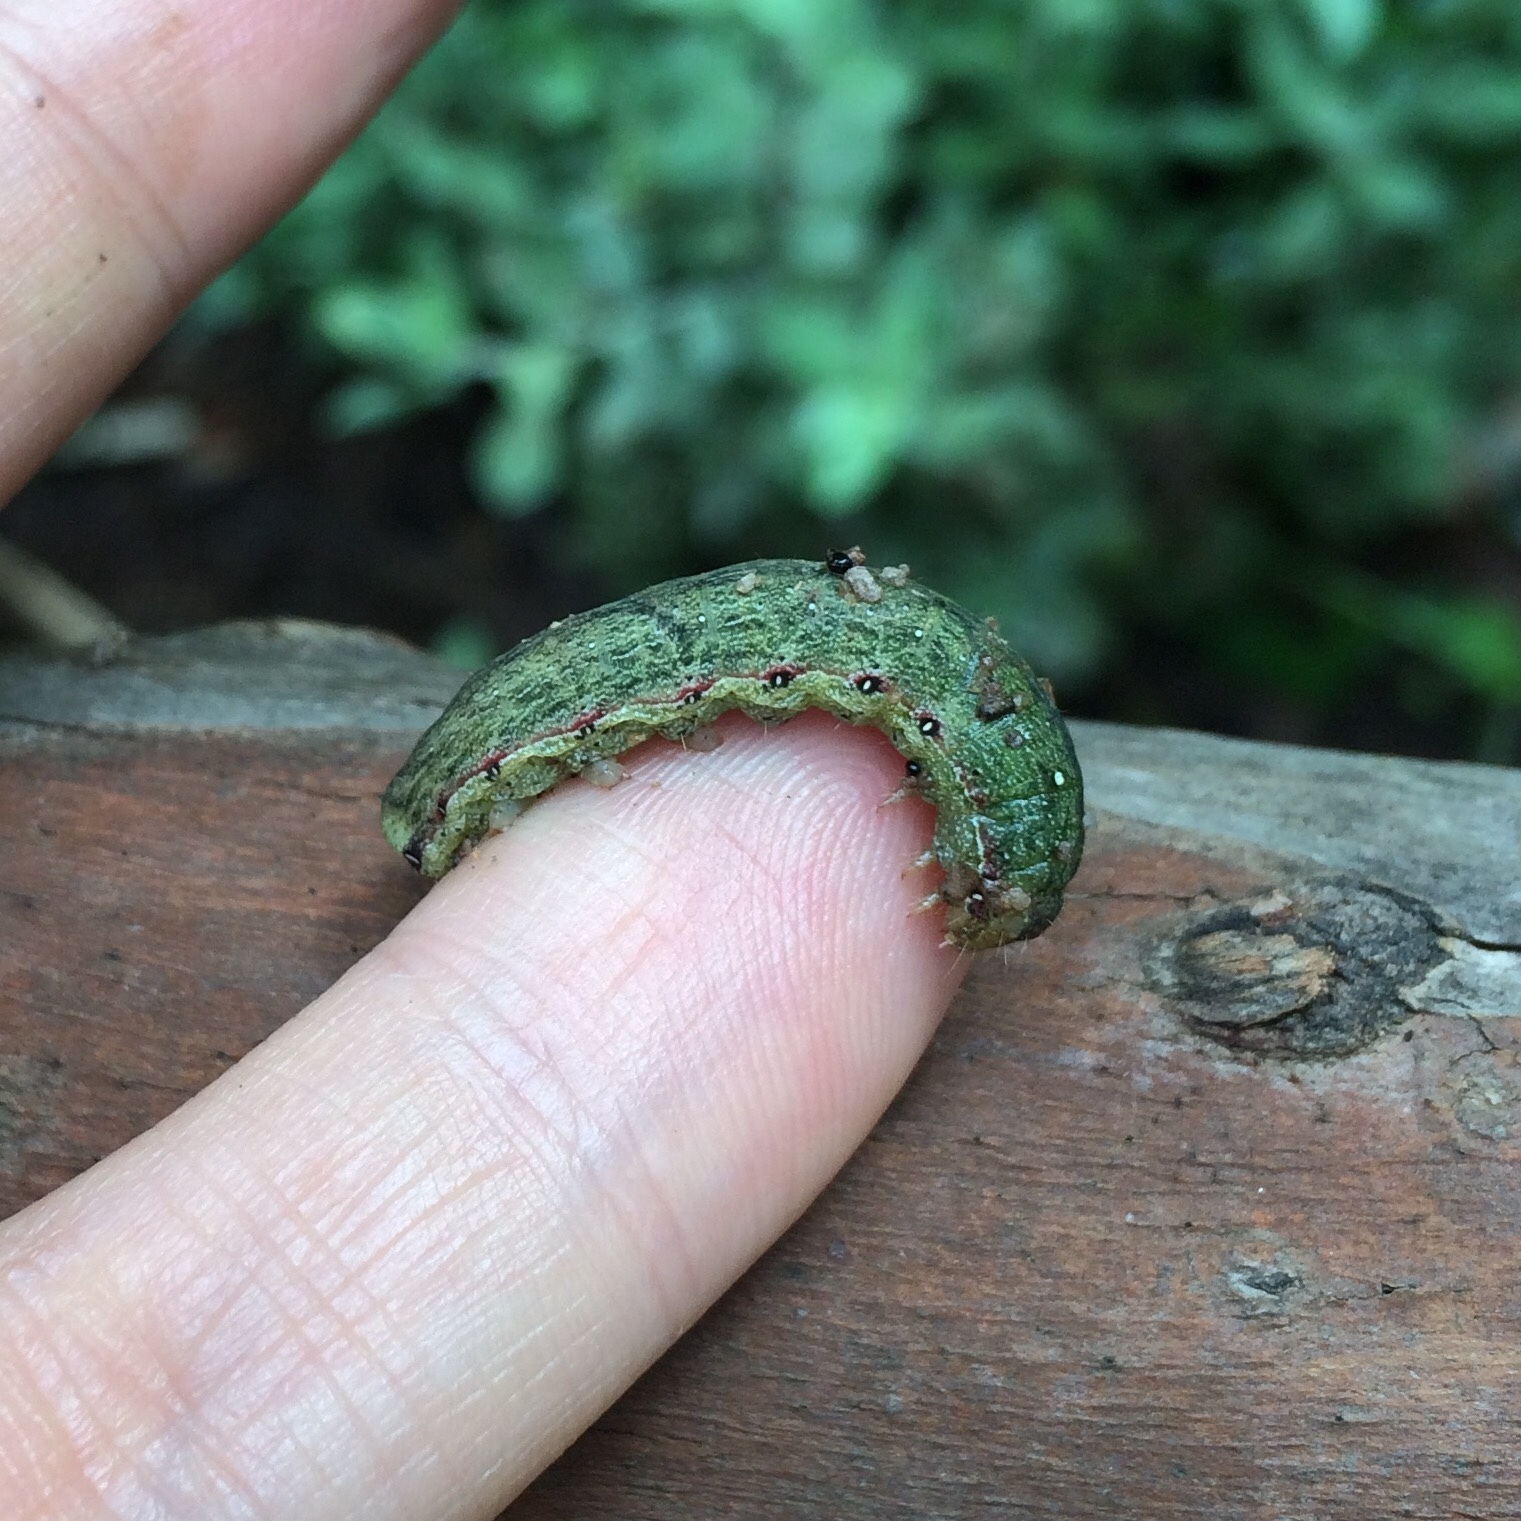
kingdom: Animalia
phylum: Arthropoda
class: Insecta
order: Lepidoptera
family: Noctuidae
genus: Mentaxya
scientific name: Mentaxya ignicollis
